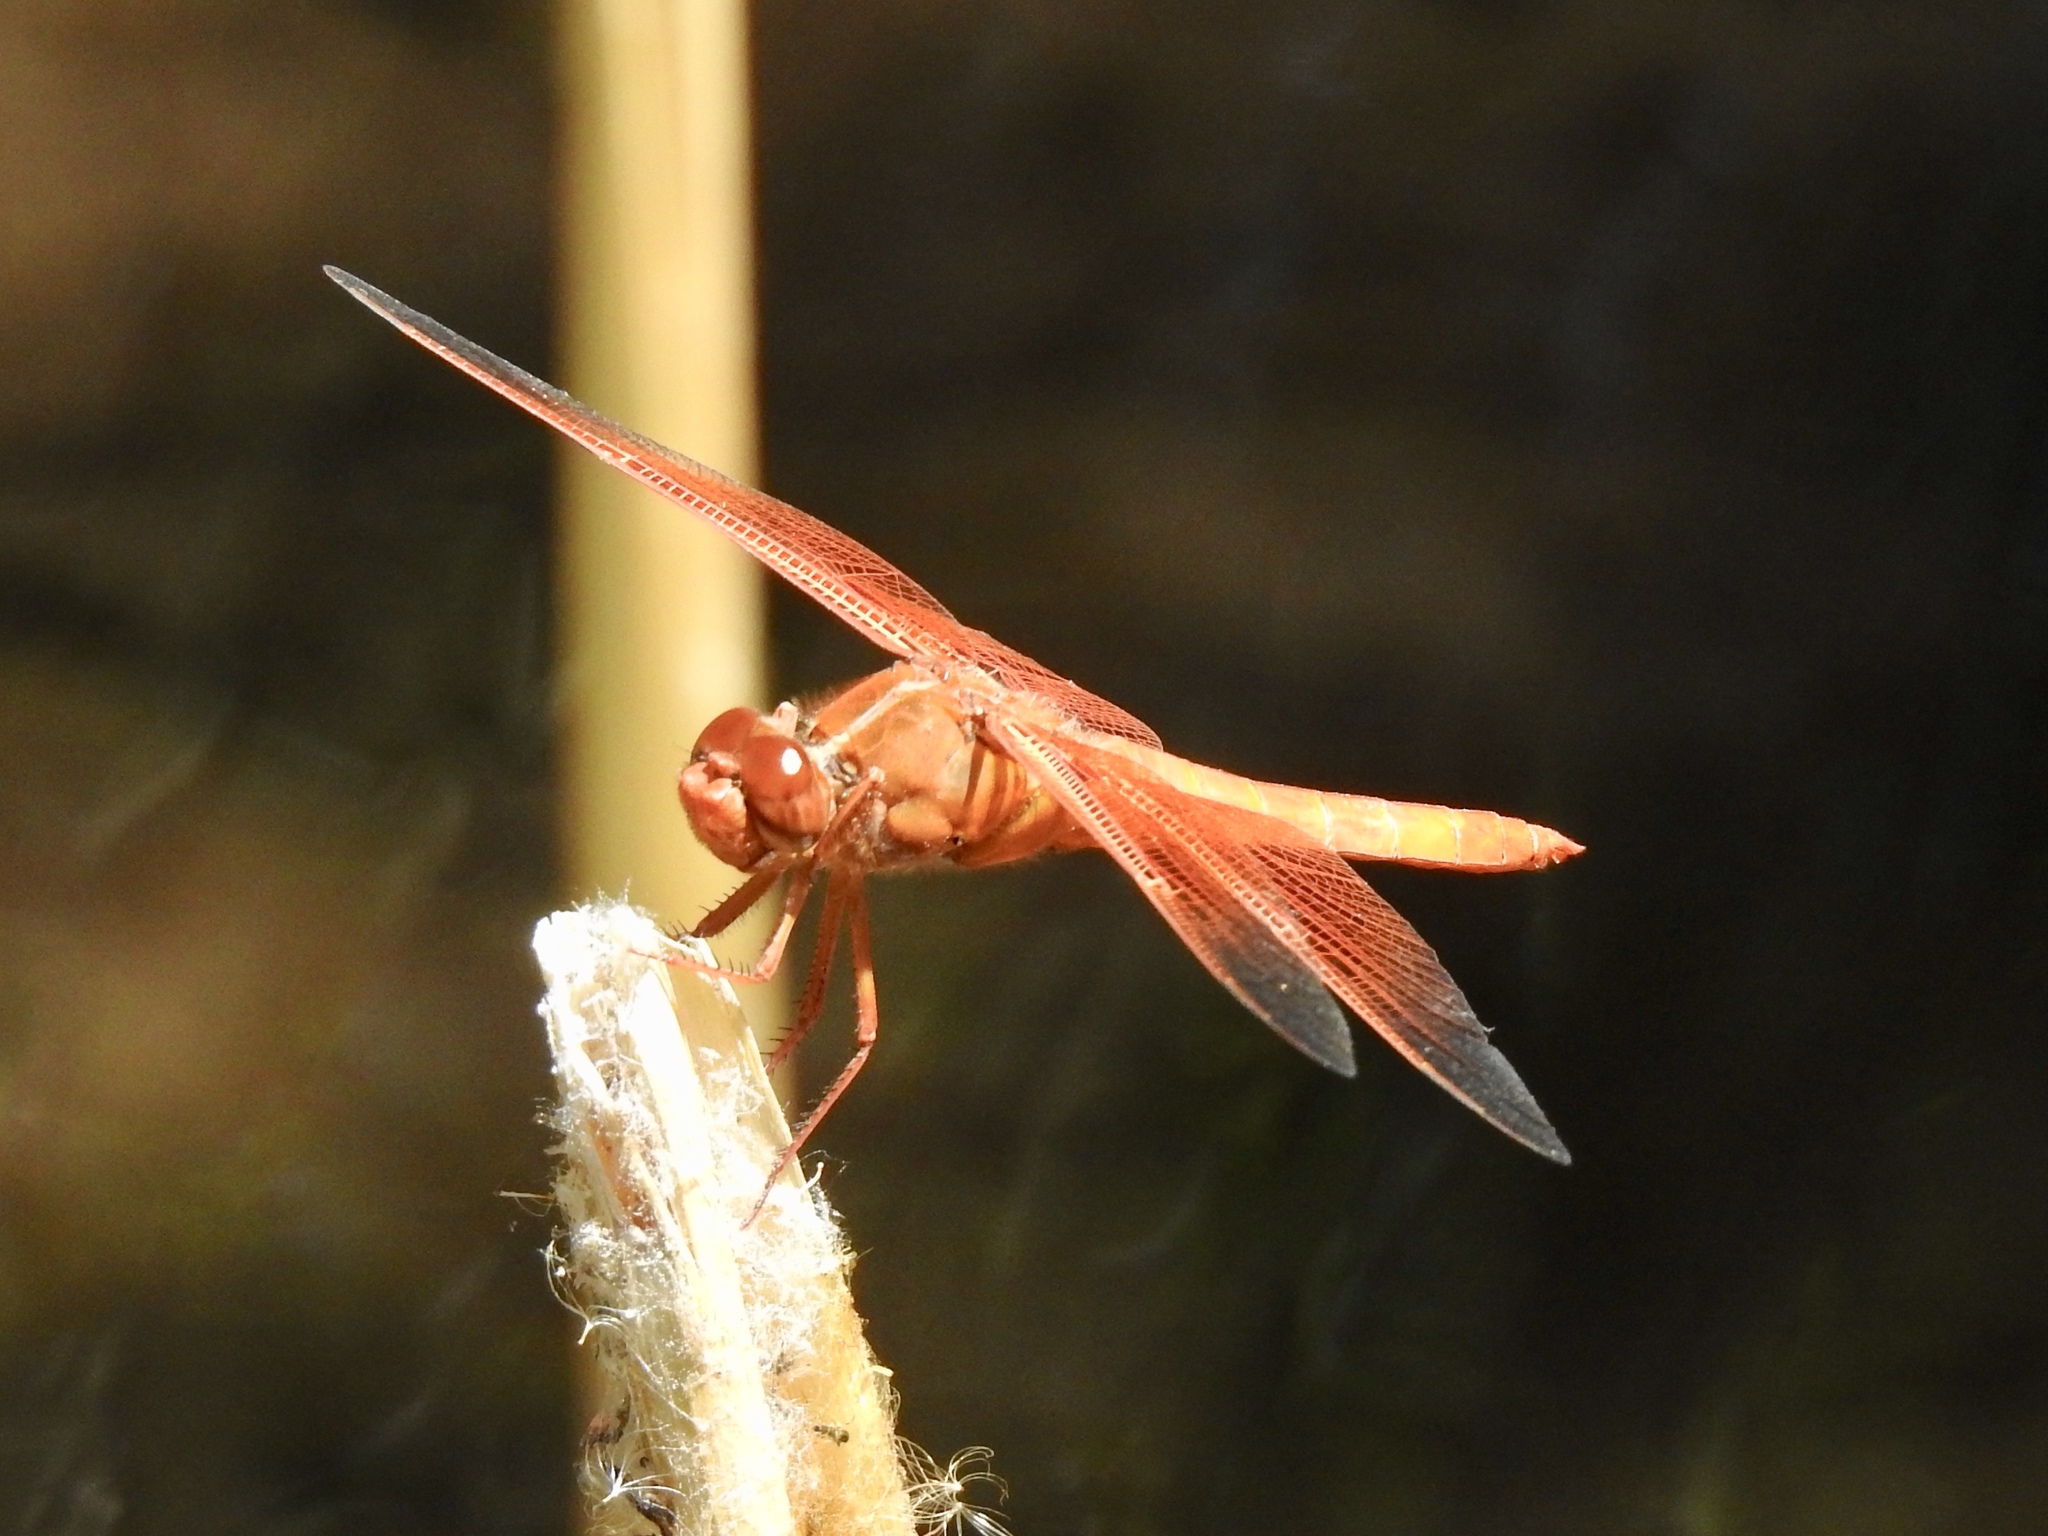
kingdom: Animalia
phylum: Arthropoda
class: Insecta
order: Odonata
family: Libellulidae
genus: Libellula
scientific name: Libellula saturata
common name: Flame skimmer
